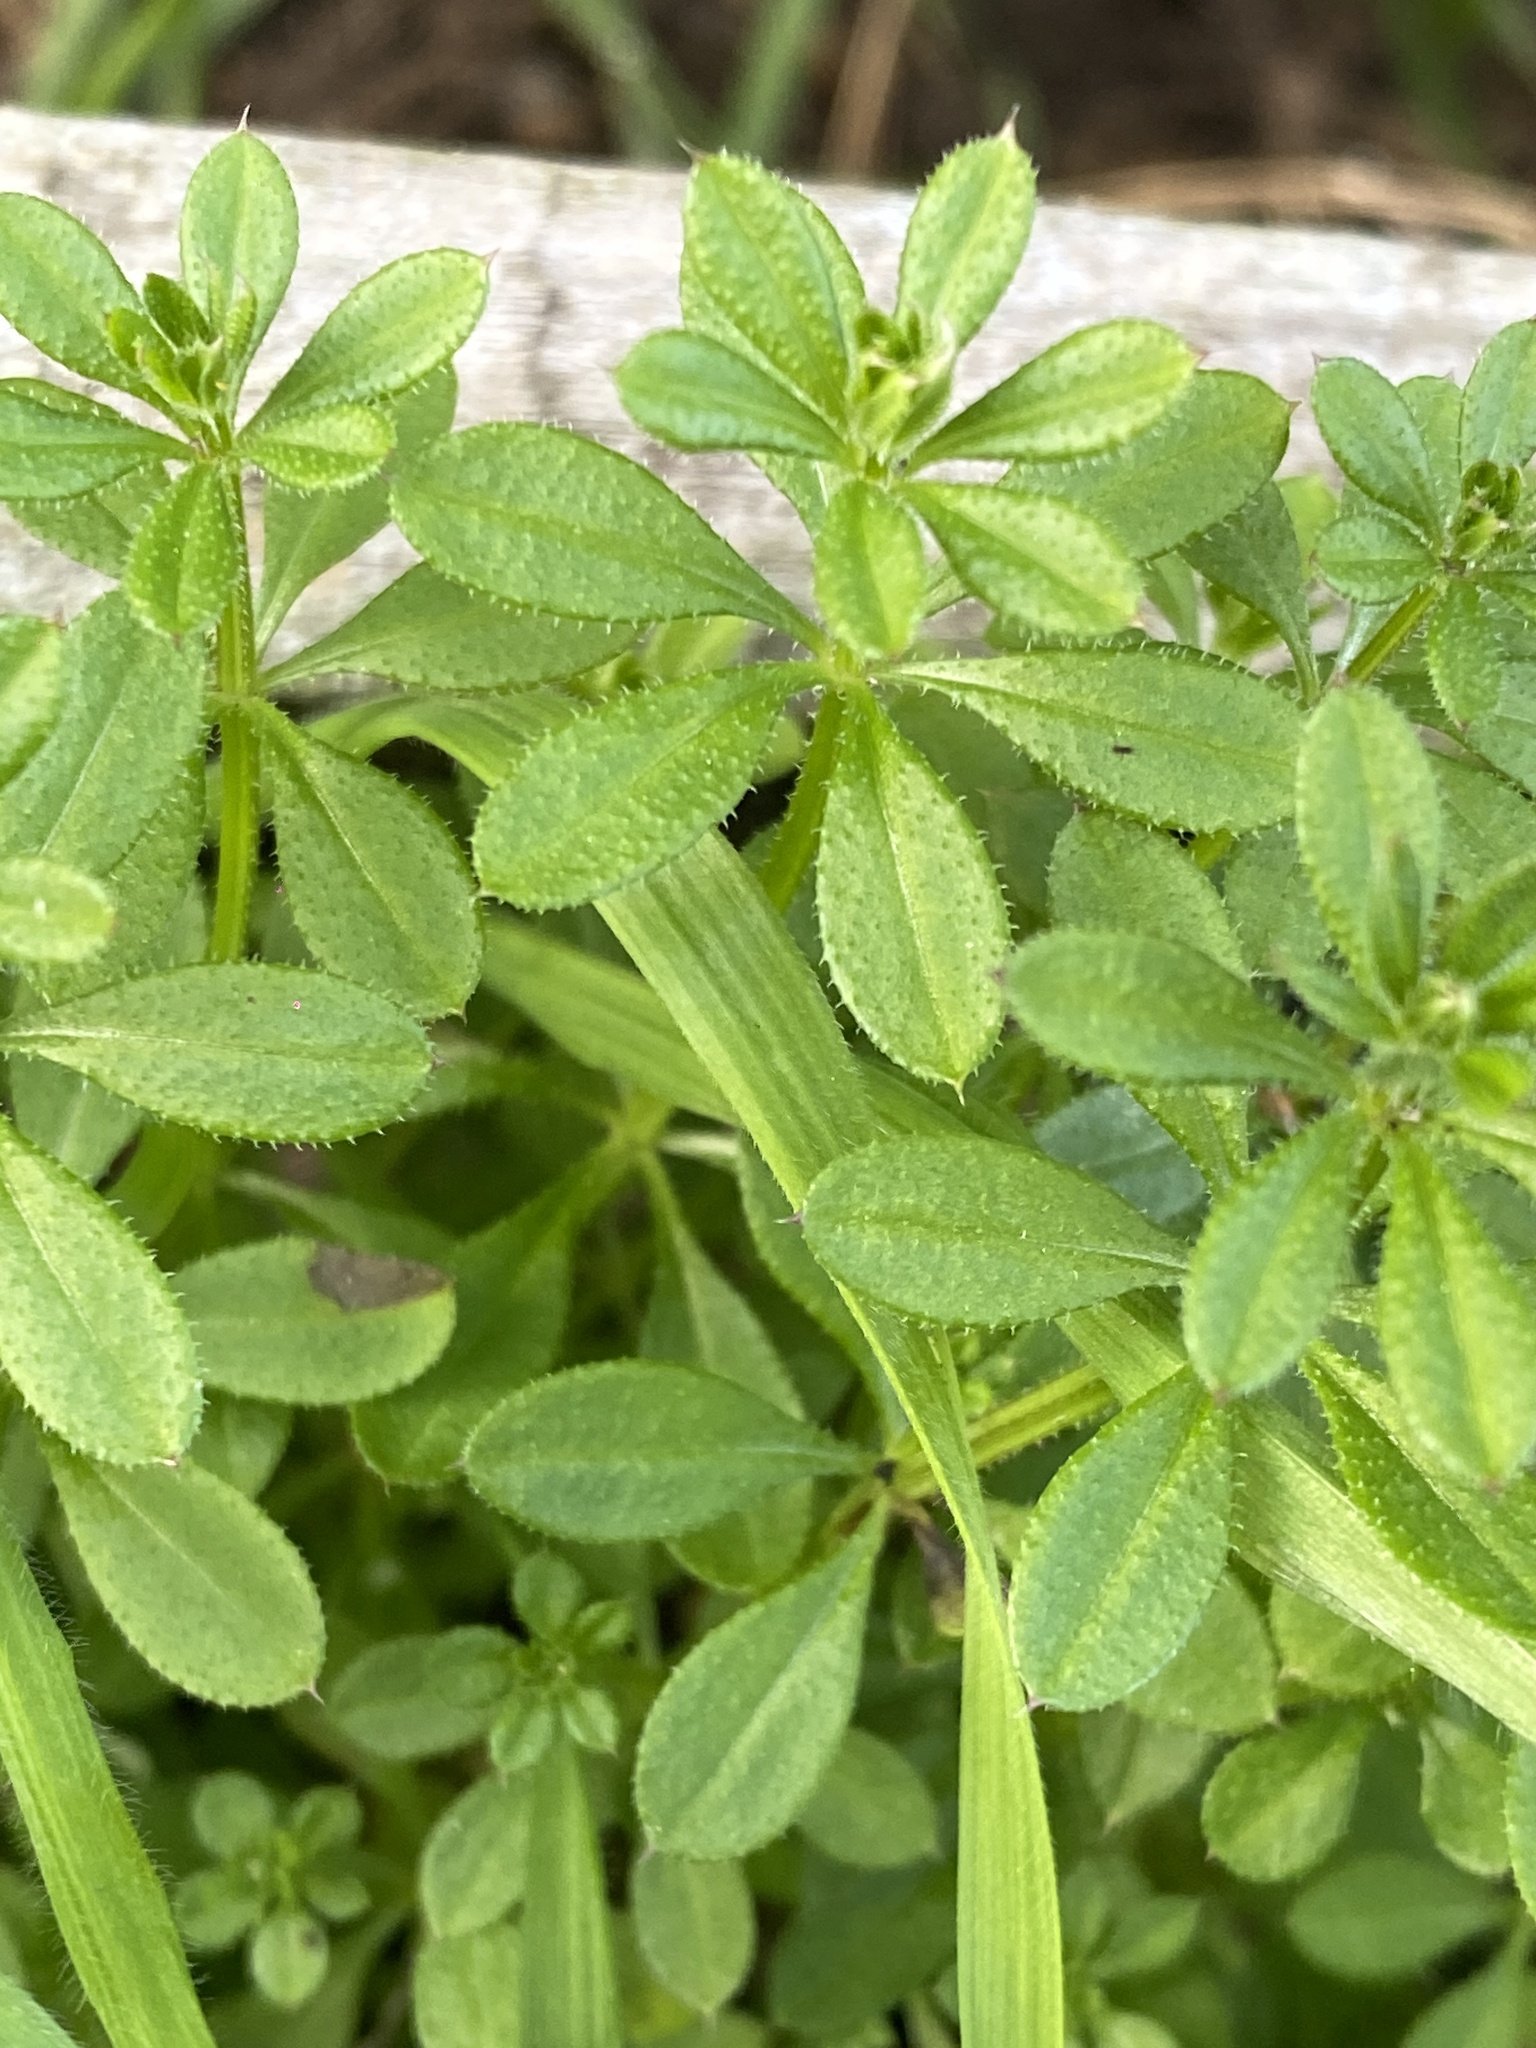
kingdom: Plantae
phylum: Tracheophyta
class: Magnoliopsida
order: Gentianales
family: Rubiaceae
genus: Galium
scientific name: Galium aparine
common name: Cleavers
